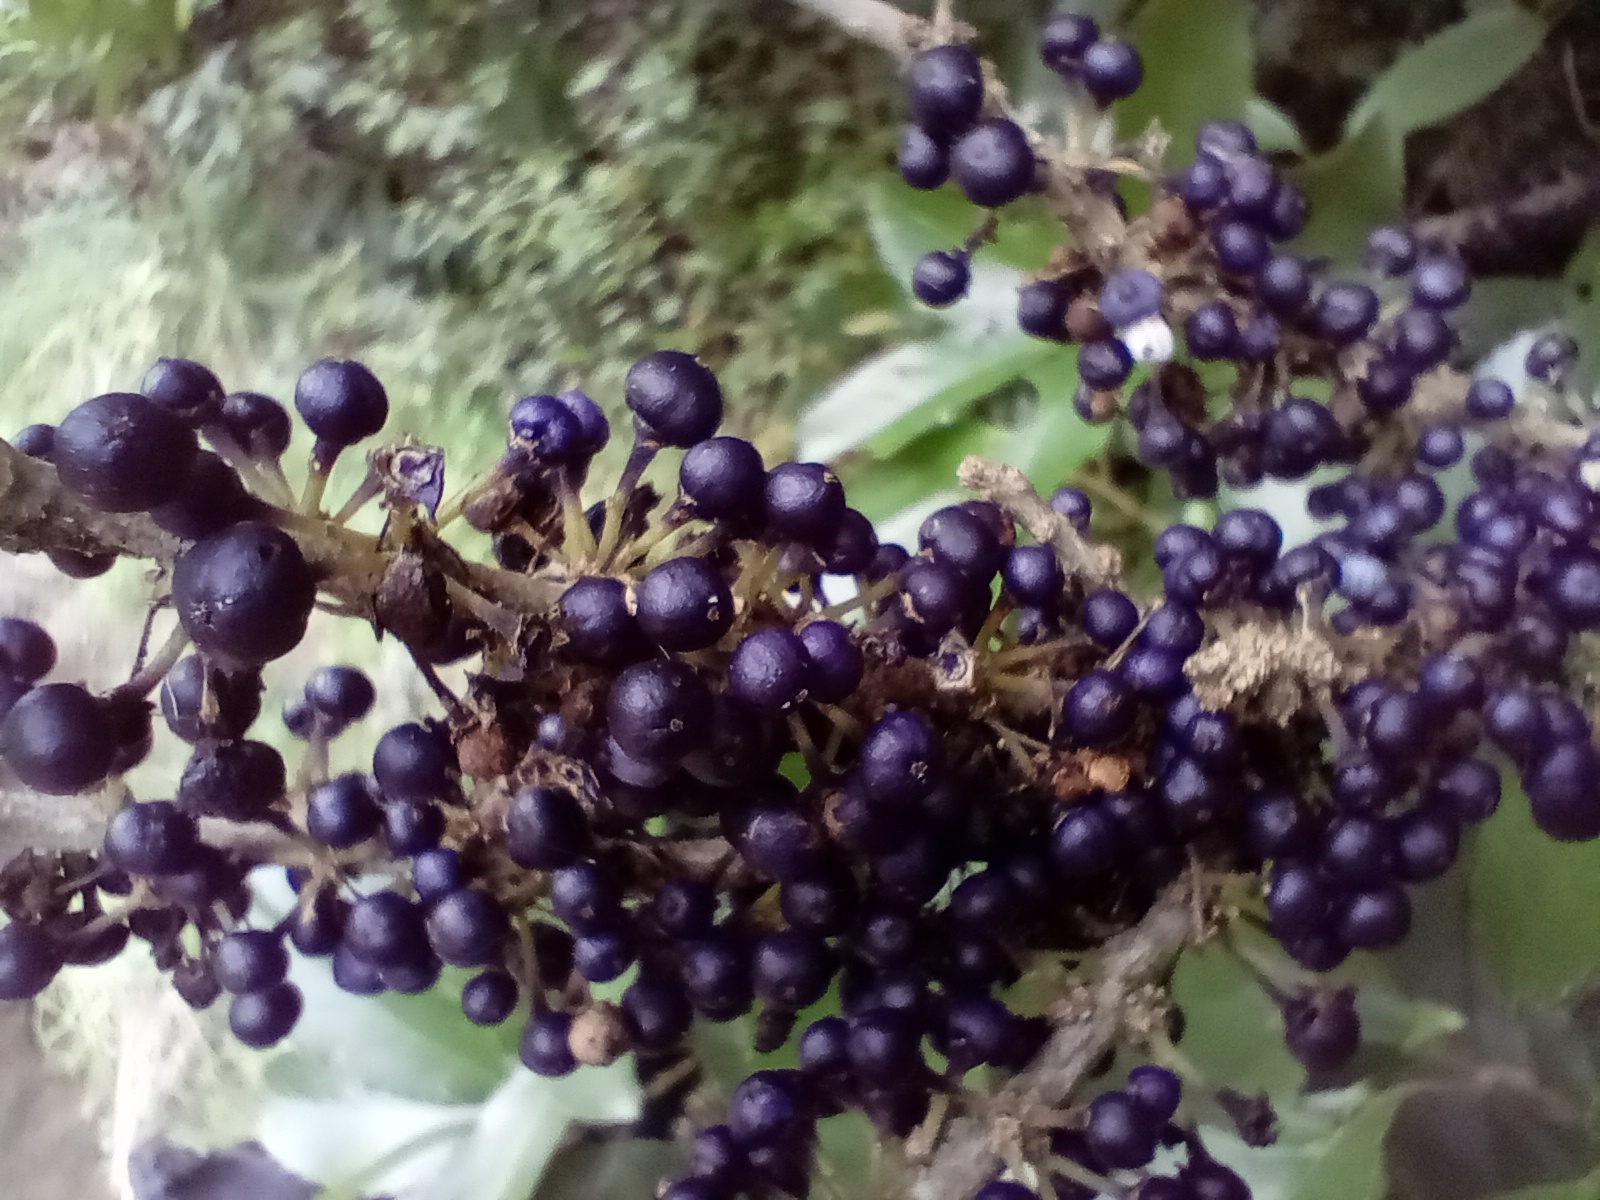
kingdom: Plantae
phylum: Tracheophyta
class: Magnoliopsida
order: Malpighiales
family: Violaceae
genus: Melicytus
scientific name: Melicytus ramiflorus
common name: Mahoe
